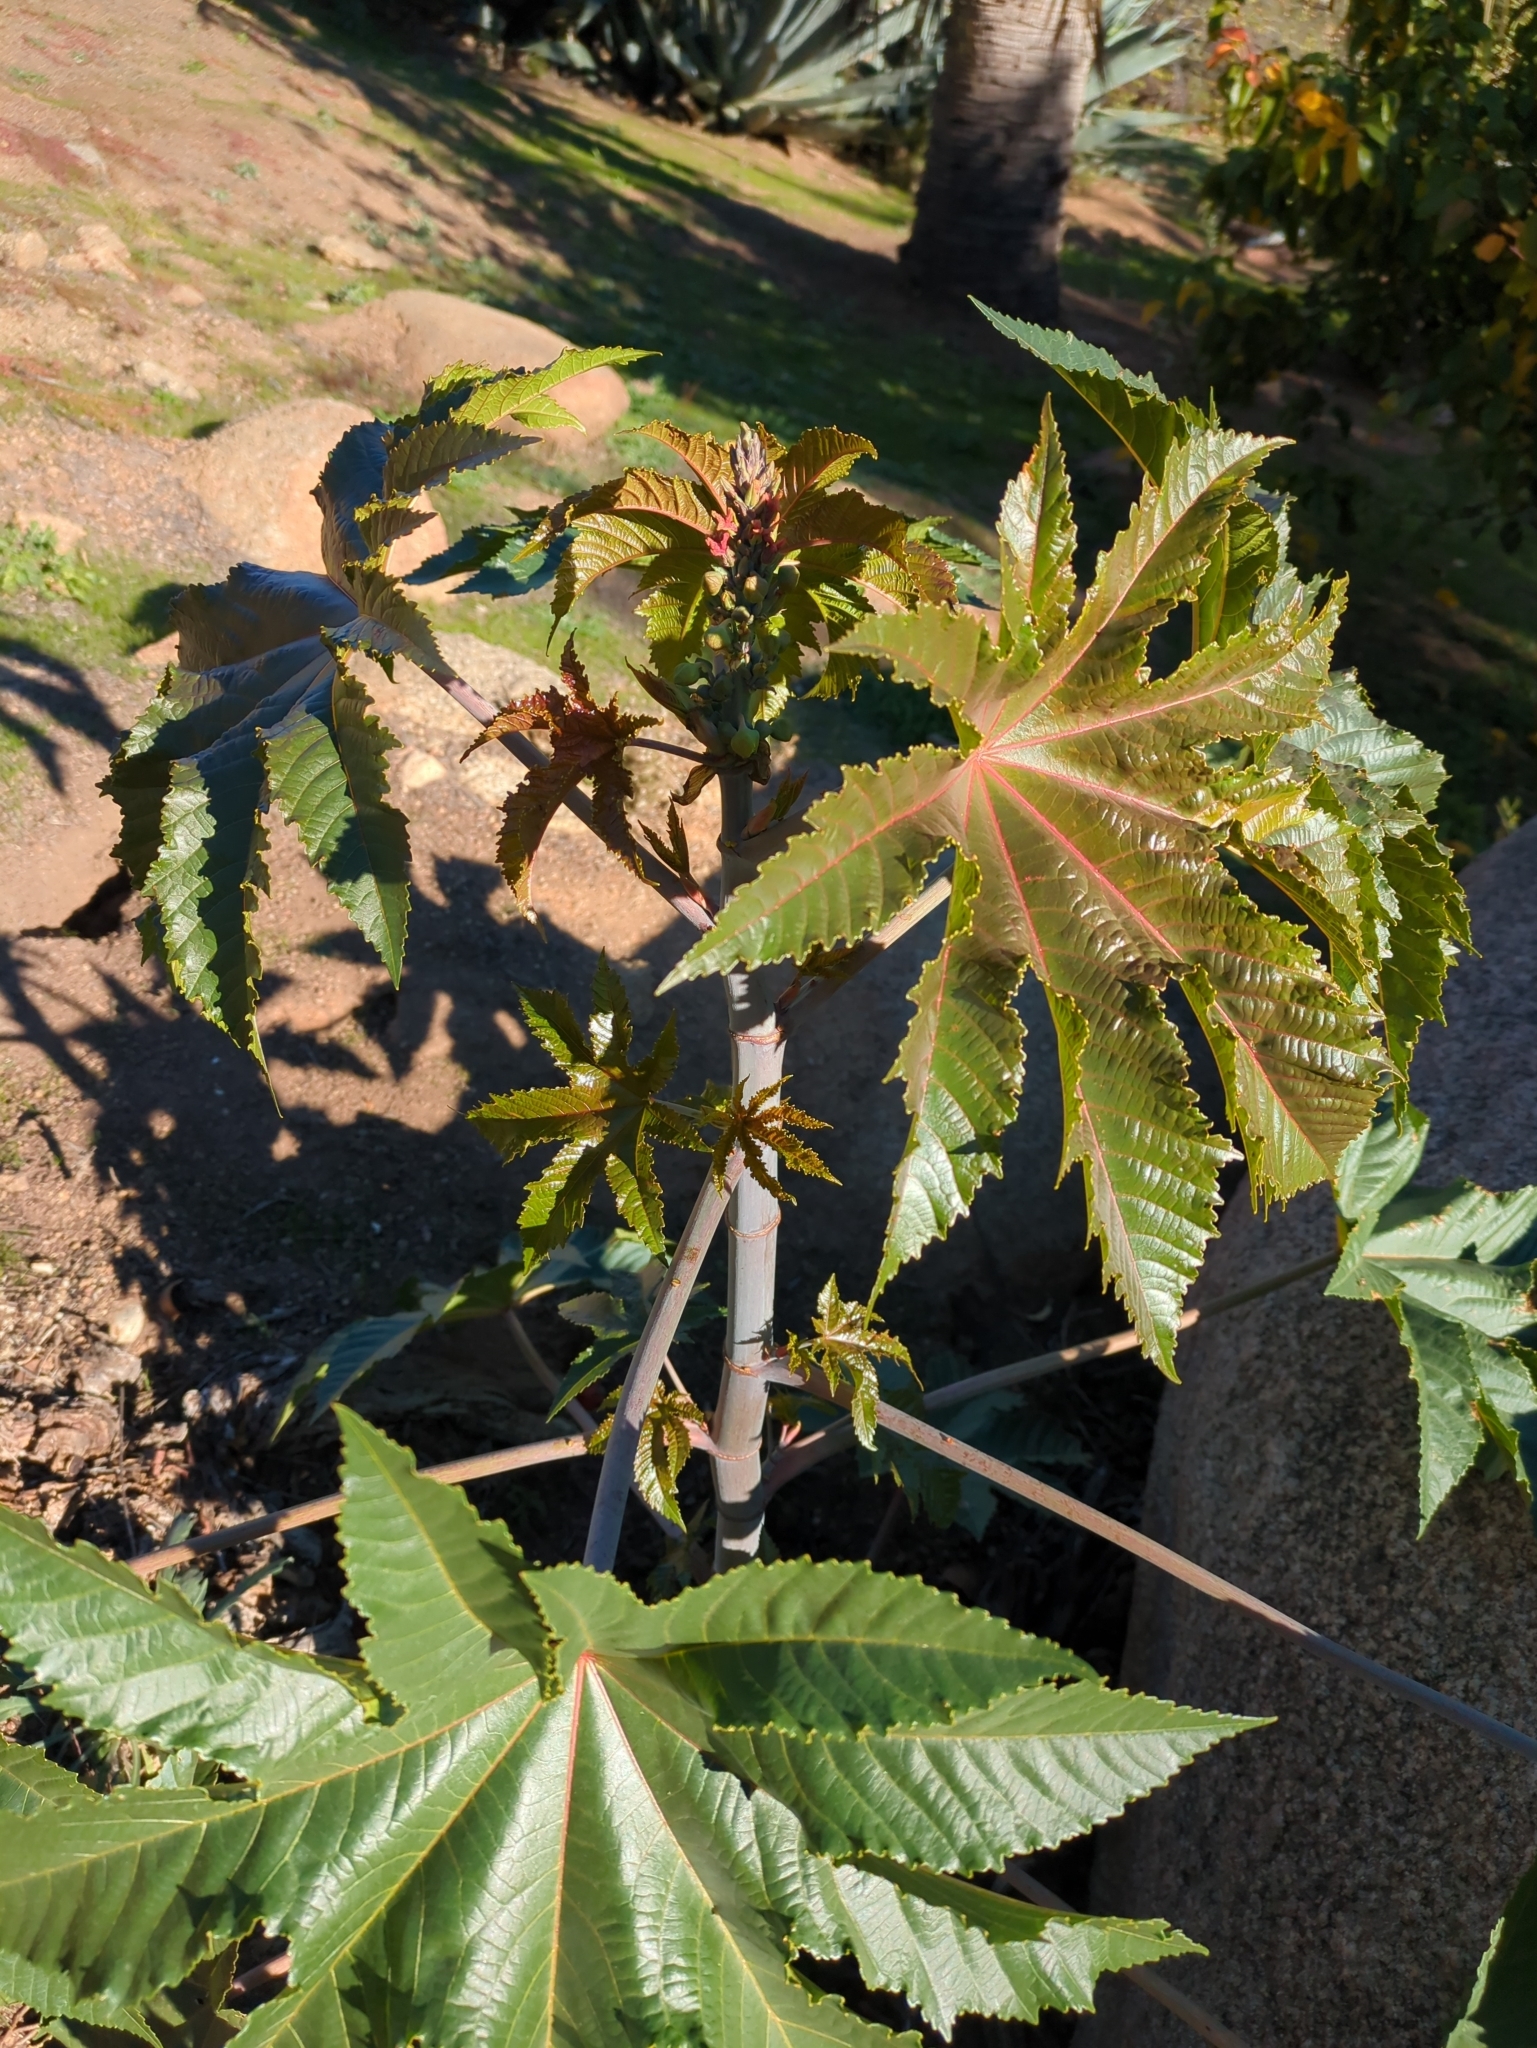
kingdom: Plantae
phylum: Tracheophyta
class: Magnoliopsida
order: Malpighiales
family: Euphorbiaceae
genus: Ricinus
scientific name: Ricinus communis
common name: Castor-oil-plant
